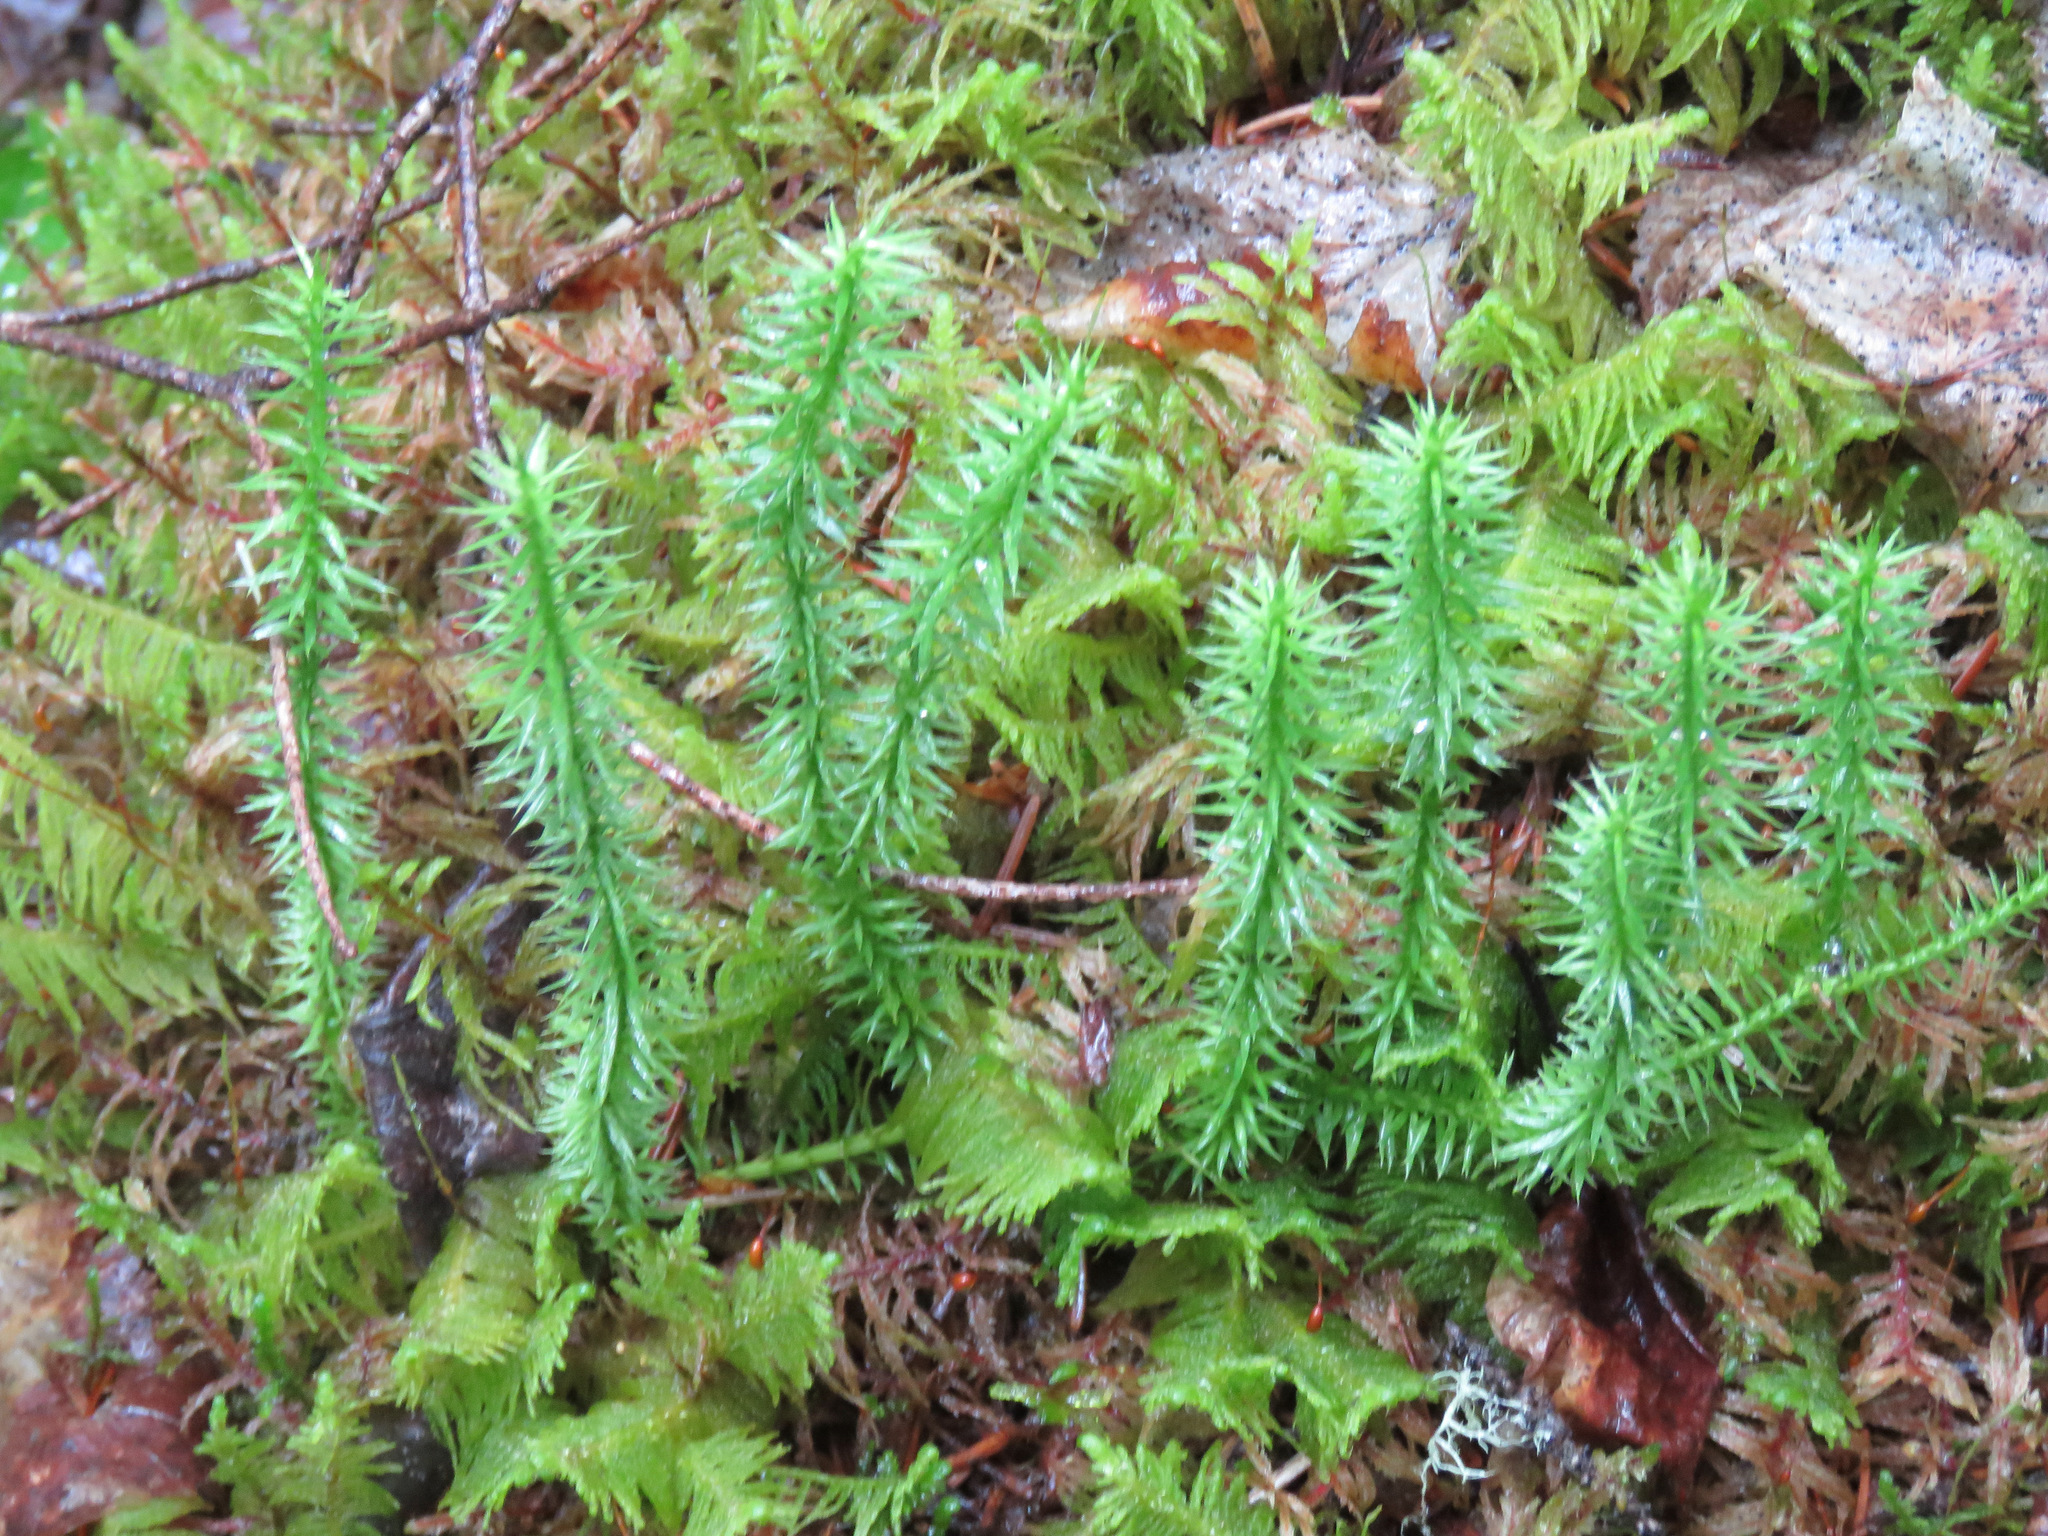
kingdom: Plantae
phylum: Tracheophyta
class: Lycopodiopsida
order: Lycopodiales
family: Lycopodiaceae
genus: Spinulum
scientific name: Spinulum annotinum
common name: Interrupted club-moss
